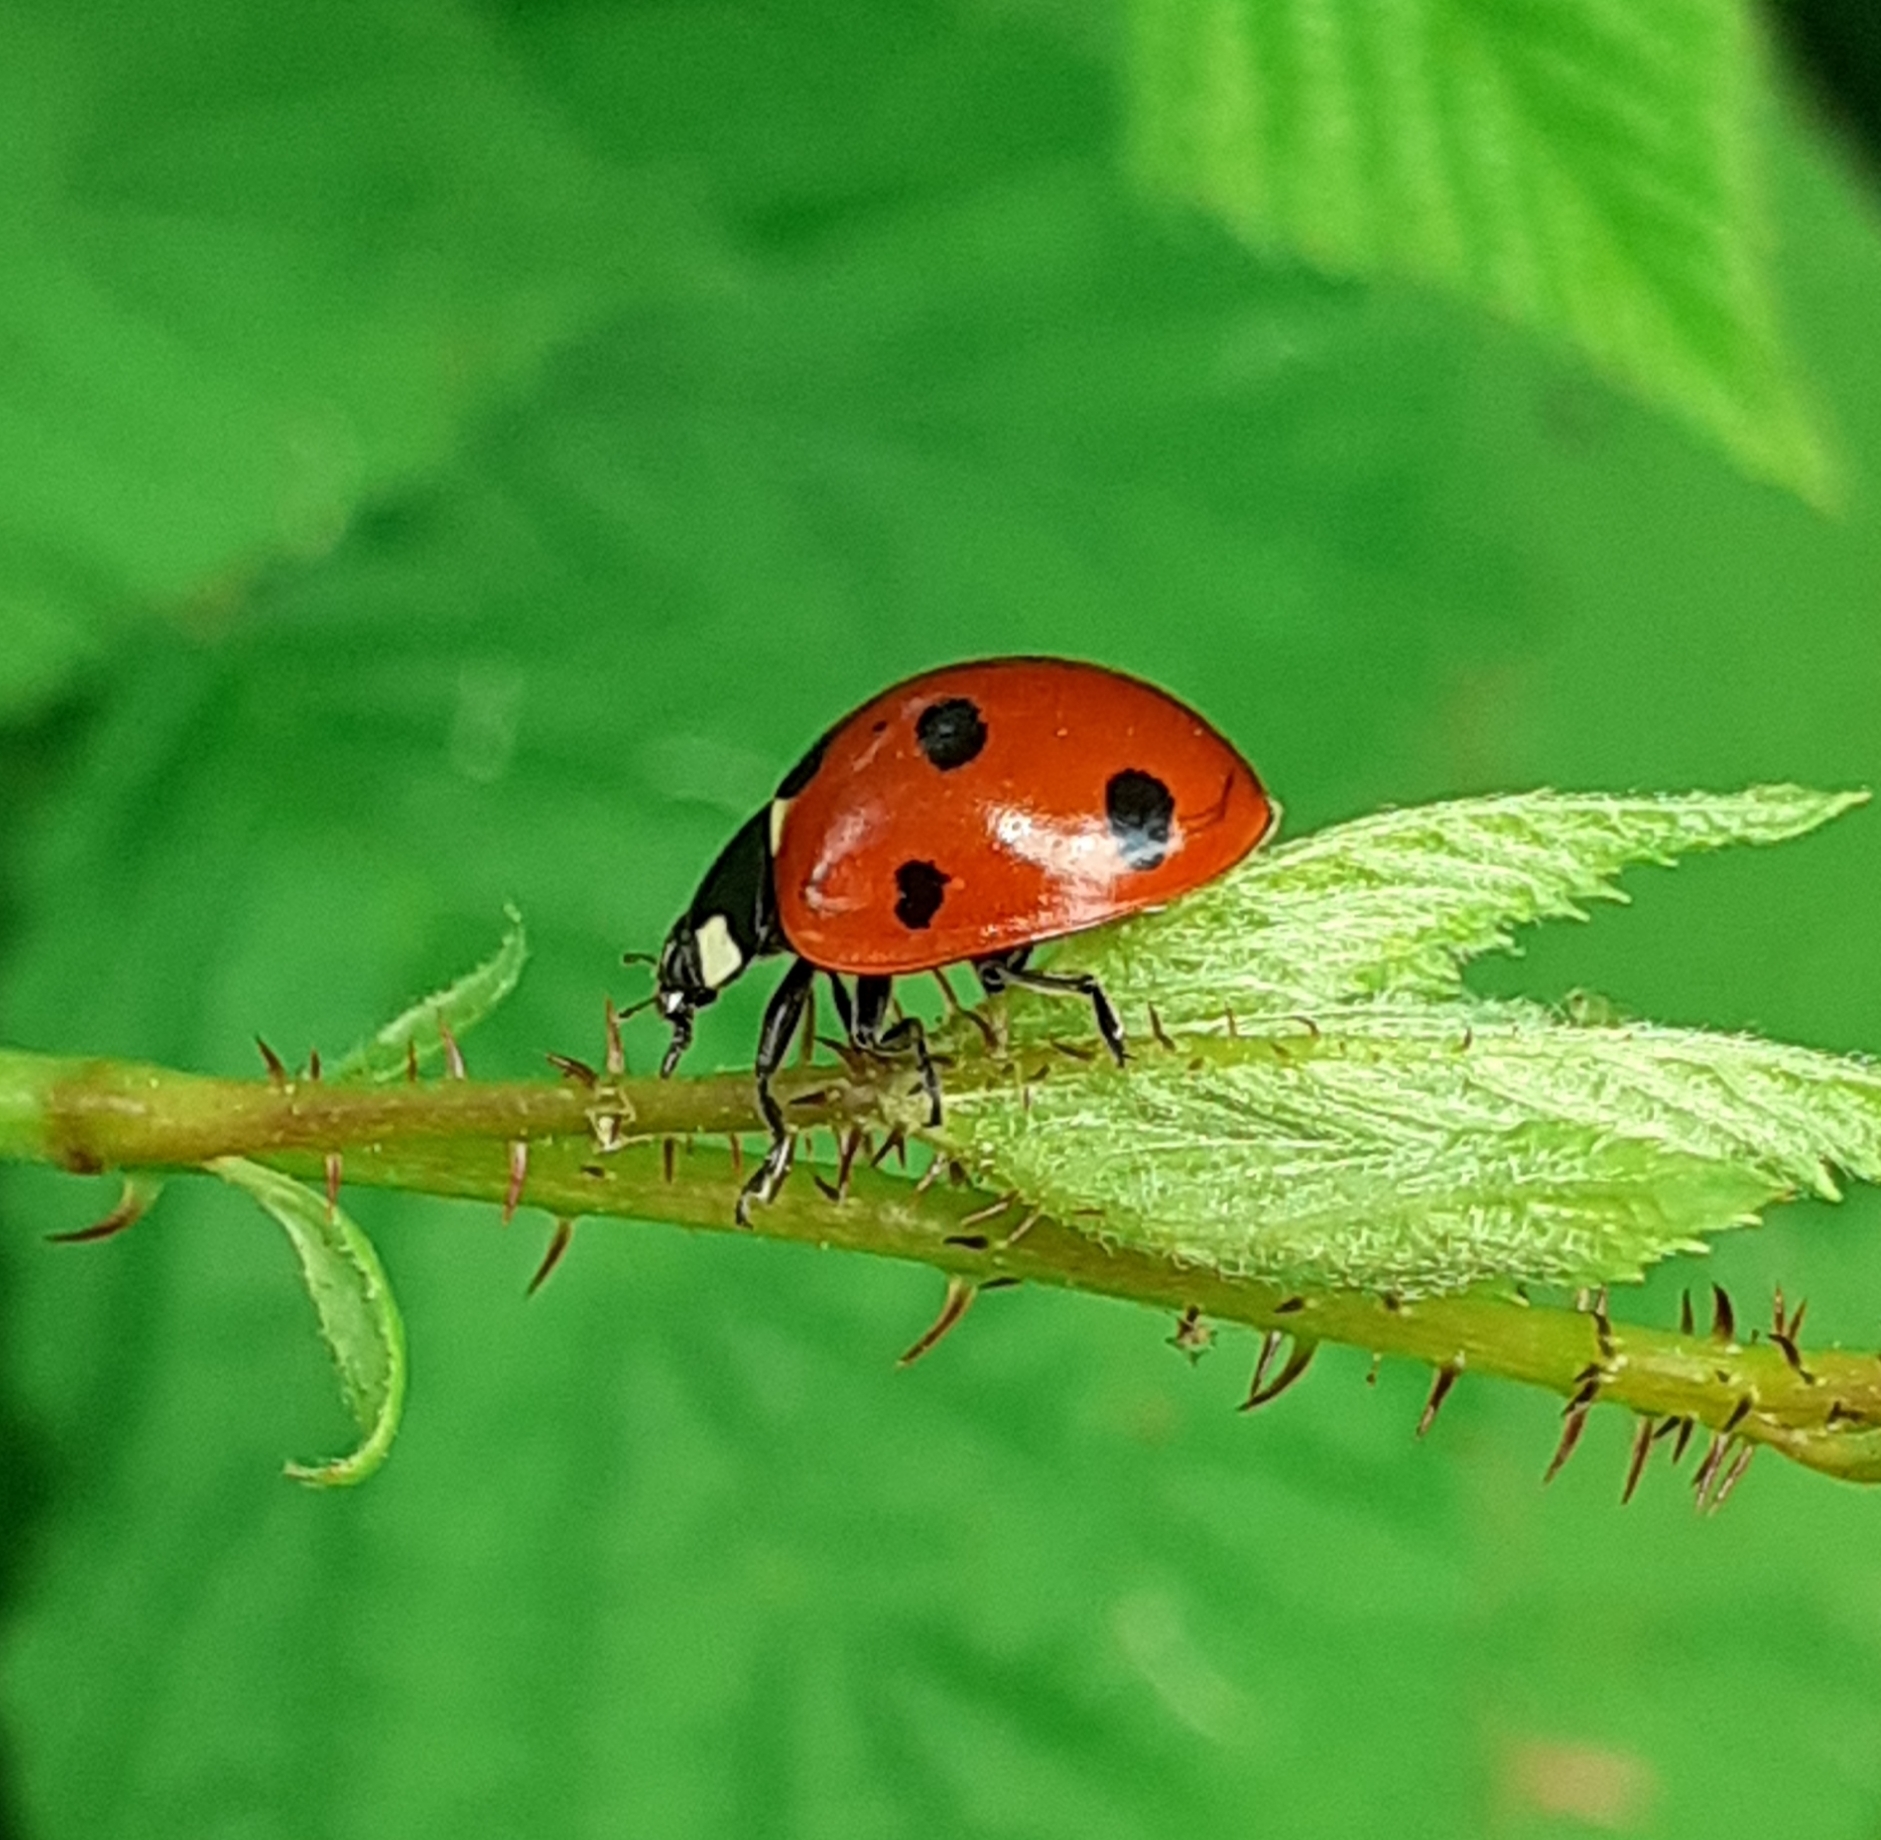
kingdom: Animalia
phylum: Arthropoda
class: Insecta
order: Coleoptera
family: Coccinellidae
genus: Coccinella
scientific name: Coccinella septempunctata
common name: Sevenspotted lady beetle
